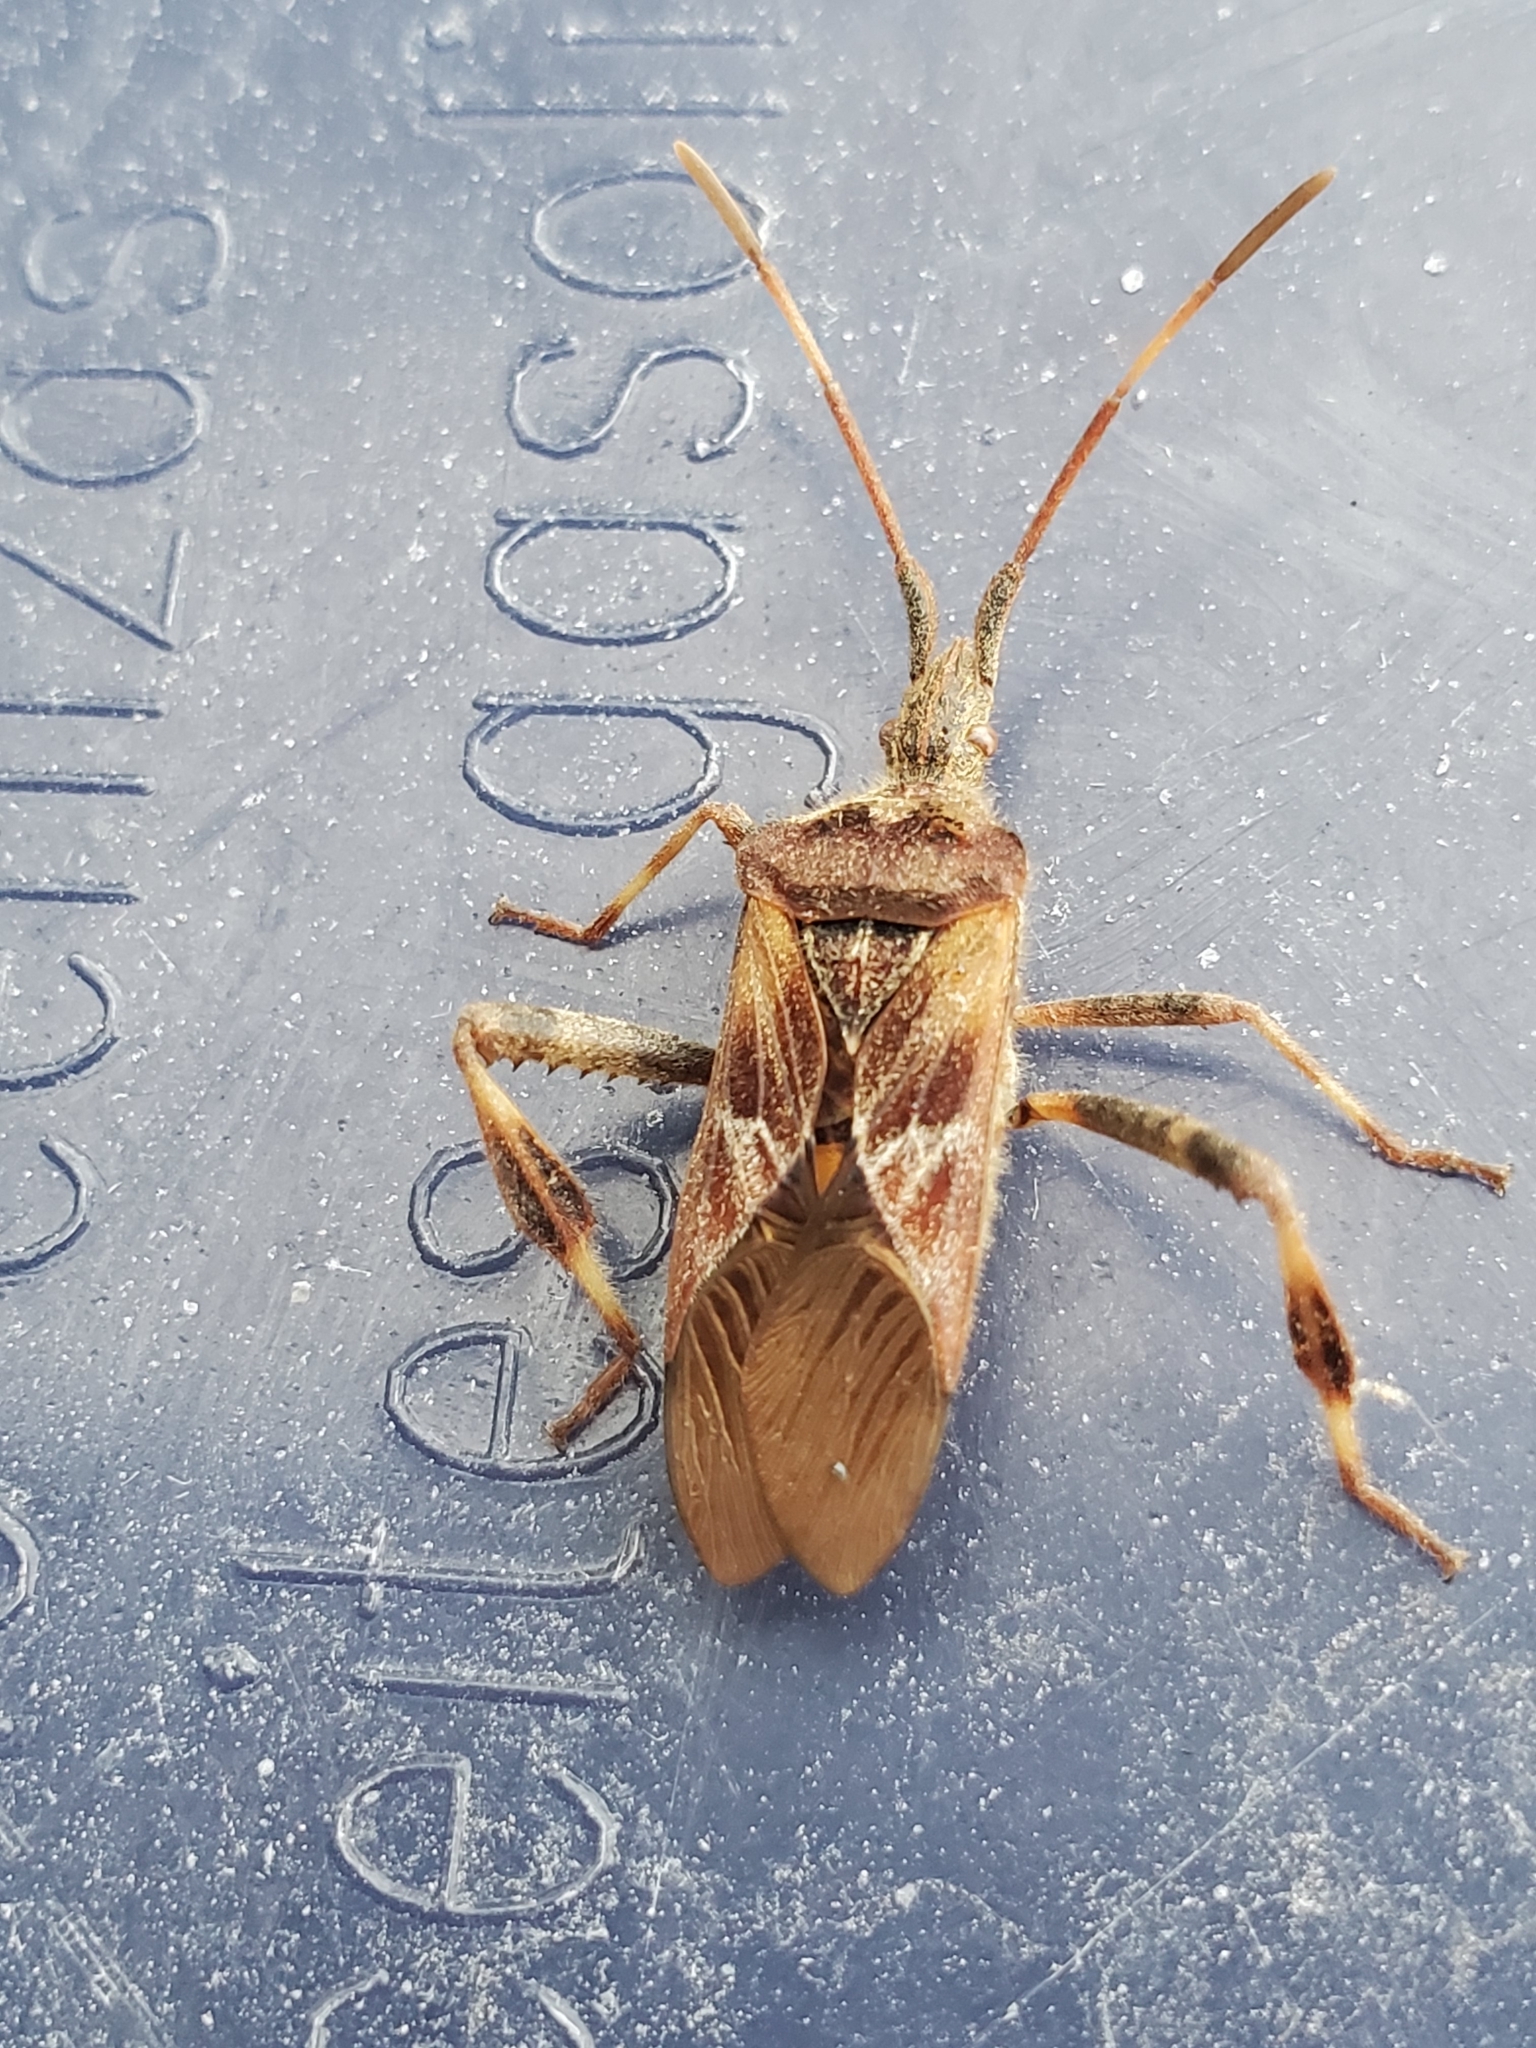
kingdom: Animalia
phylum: Arthropoda
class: Insecta
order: Hemiptera
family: Coreidae
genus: Leptoglossus
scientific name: Leptoglossus occidentalis
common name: Western conifer-seed bug
